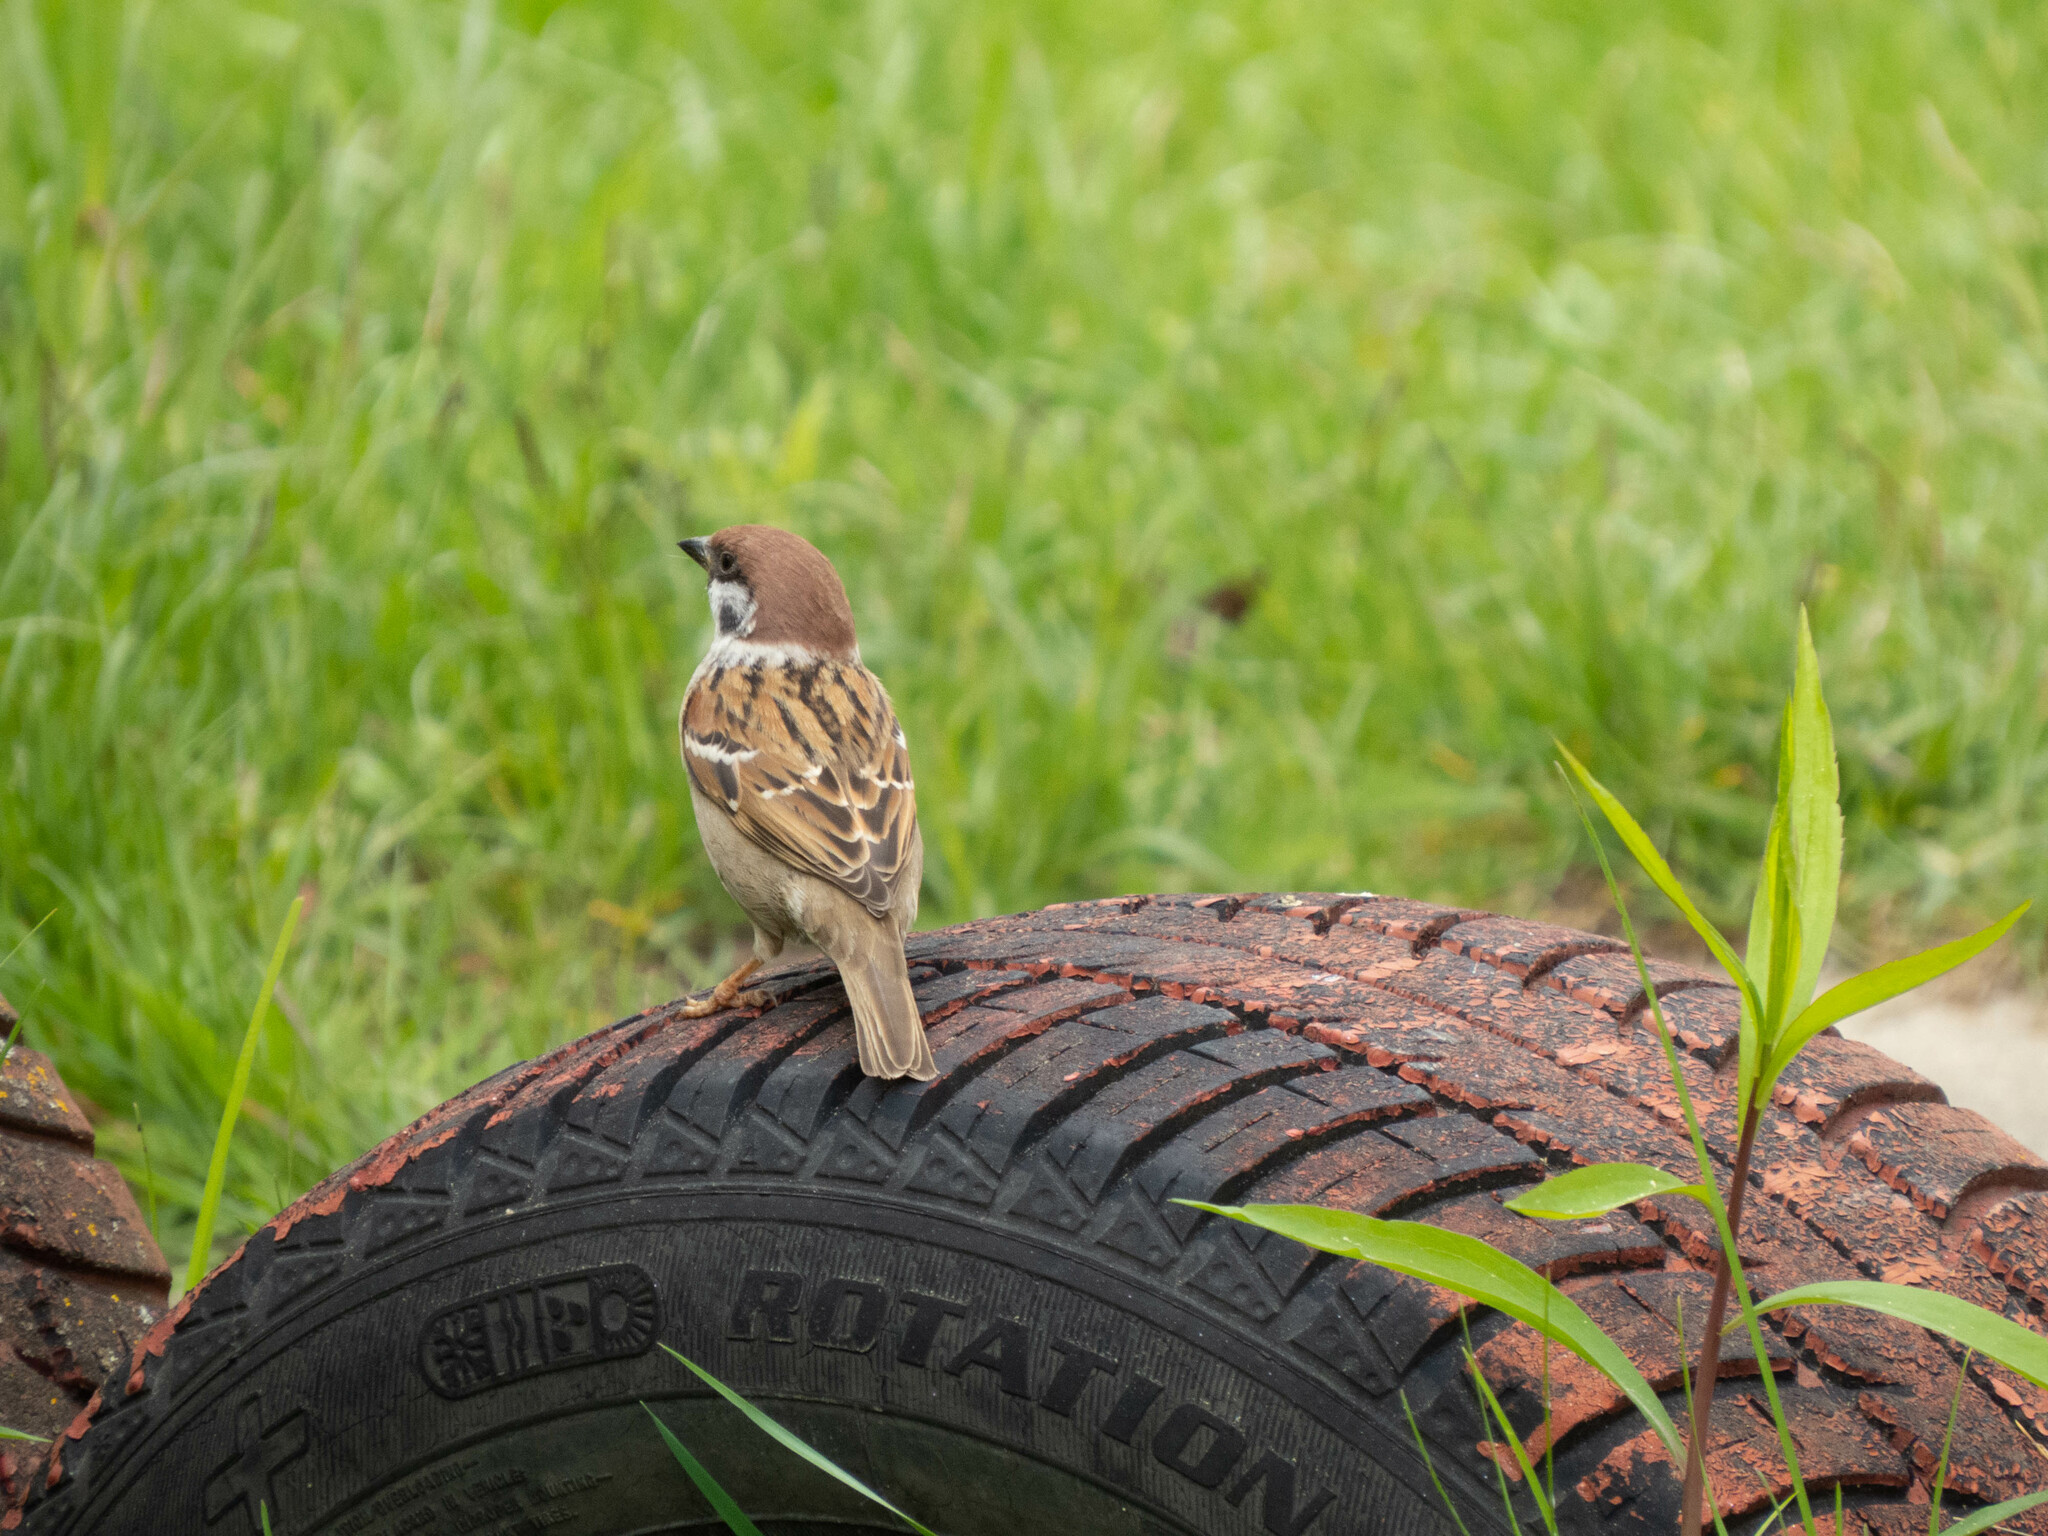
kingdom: Animalia
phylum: Chordata
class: Aves
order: Passeriformes
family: Passeridae
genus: Passer
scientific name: Passer montanus
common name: Eurasian tree sparrow
